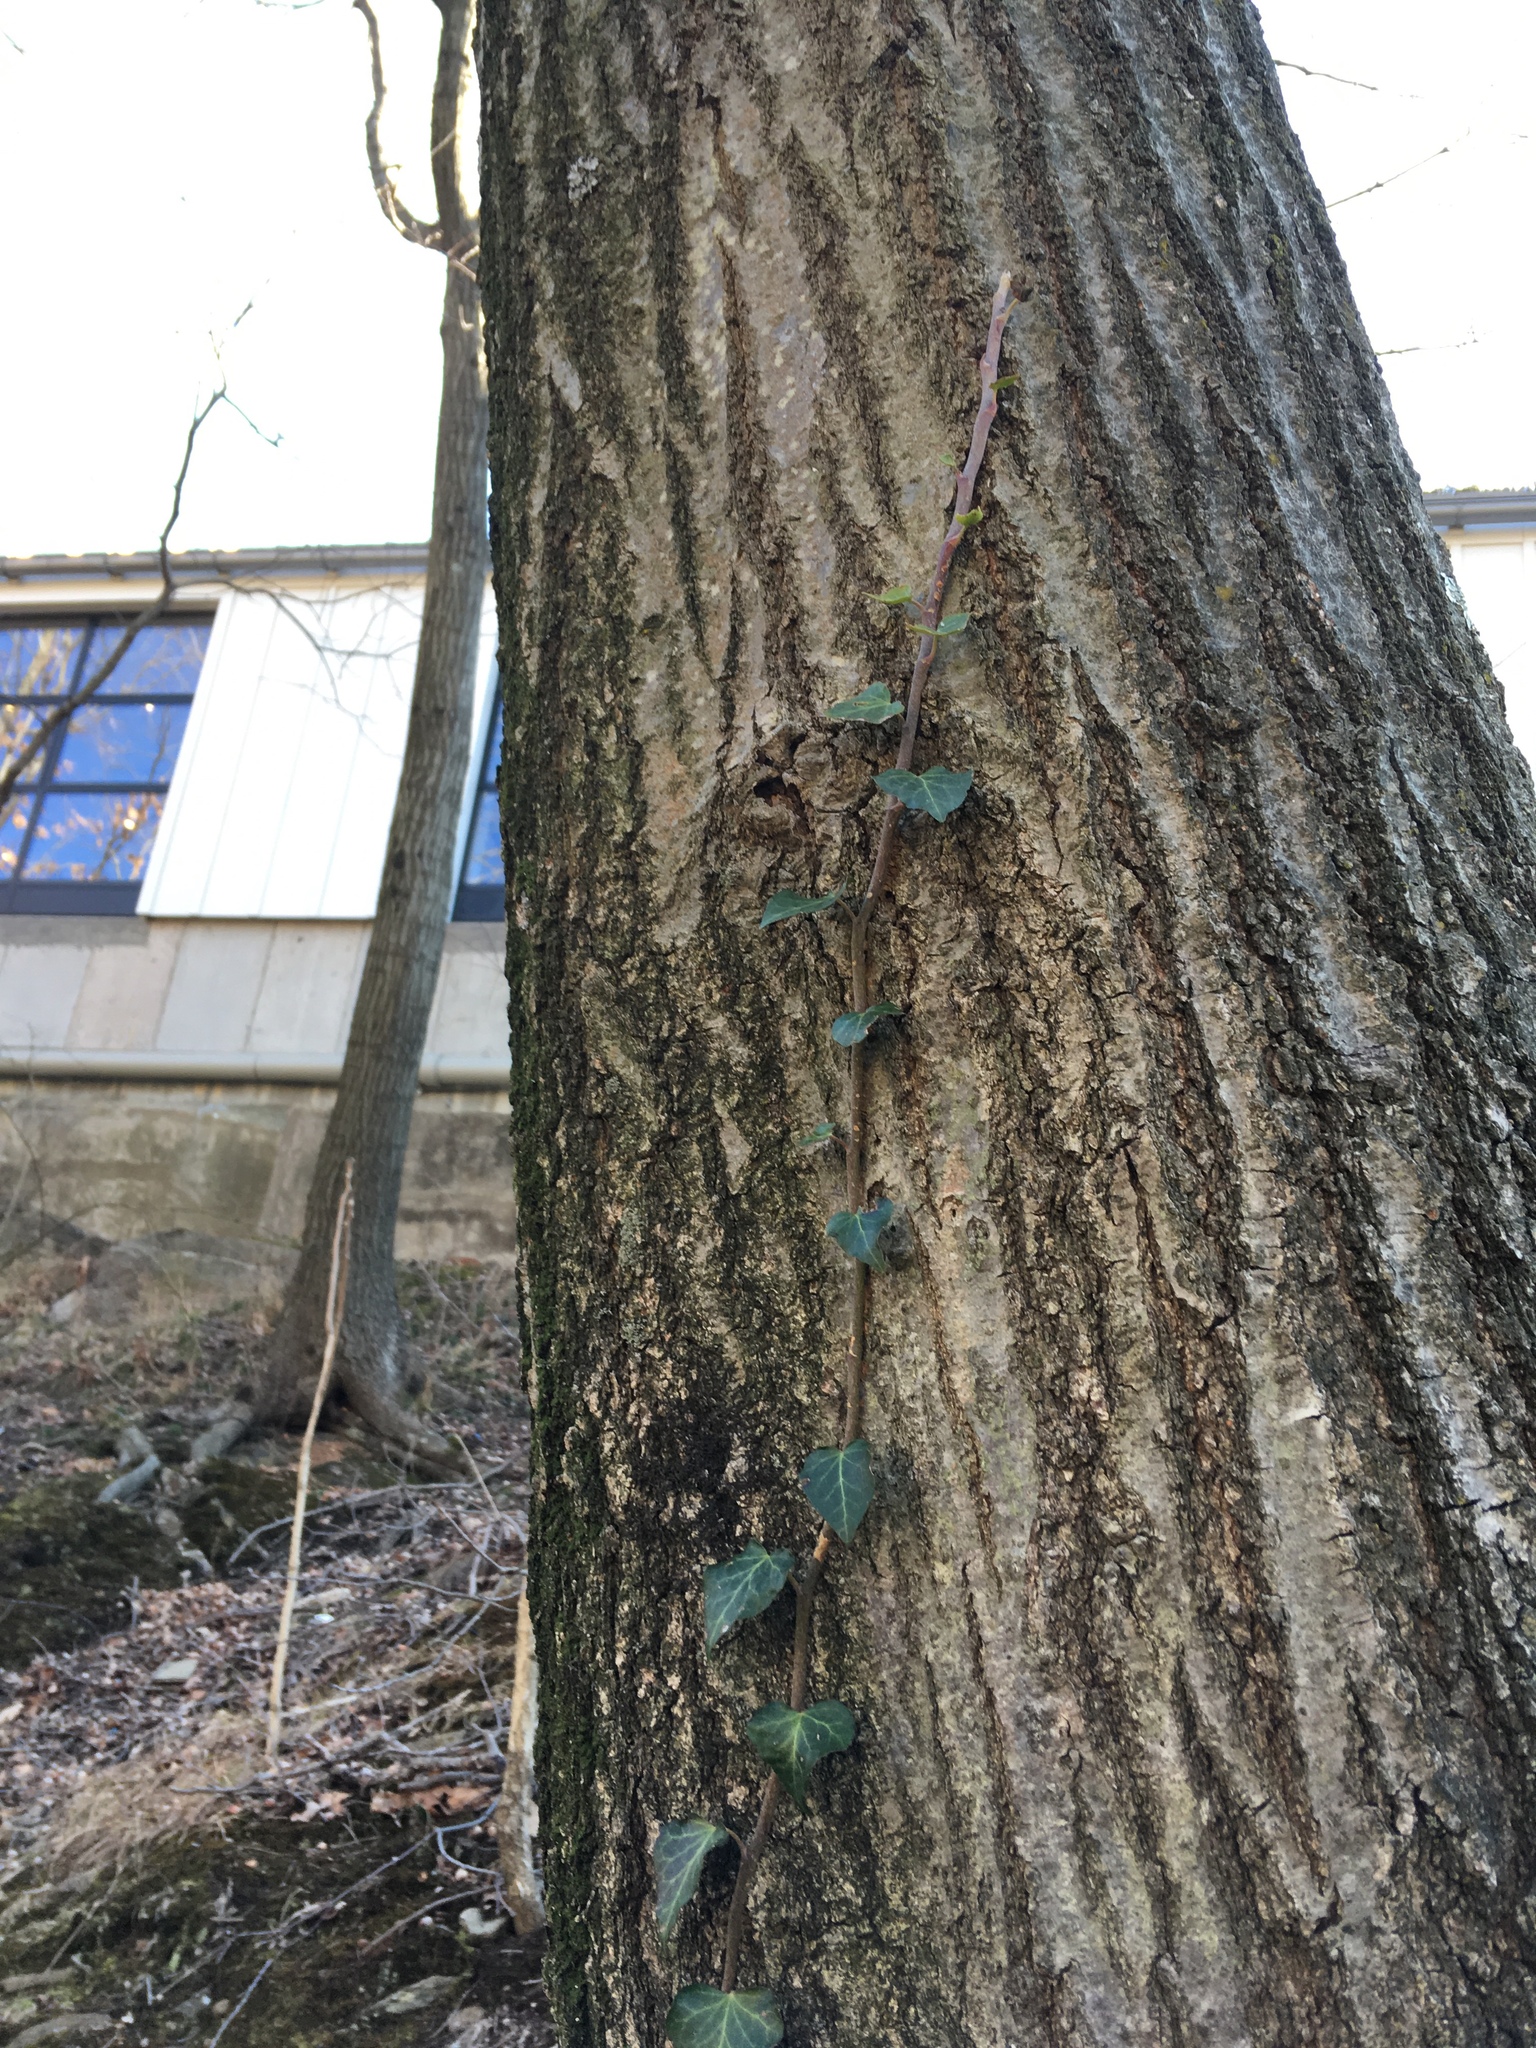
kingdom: Plantae
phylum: Tracheophyta
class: Magnoliopsida
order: Apiales
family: Araliaceae
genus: Hedera
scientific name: Hedera helix
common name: Ivy
